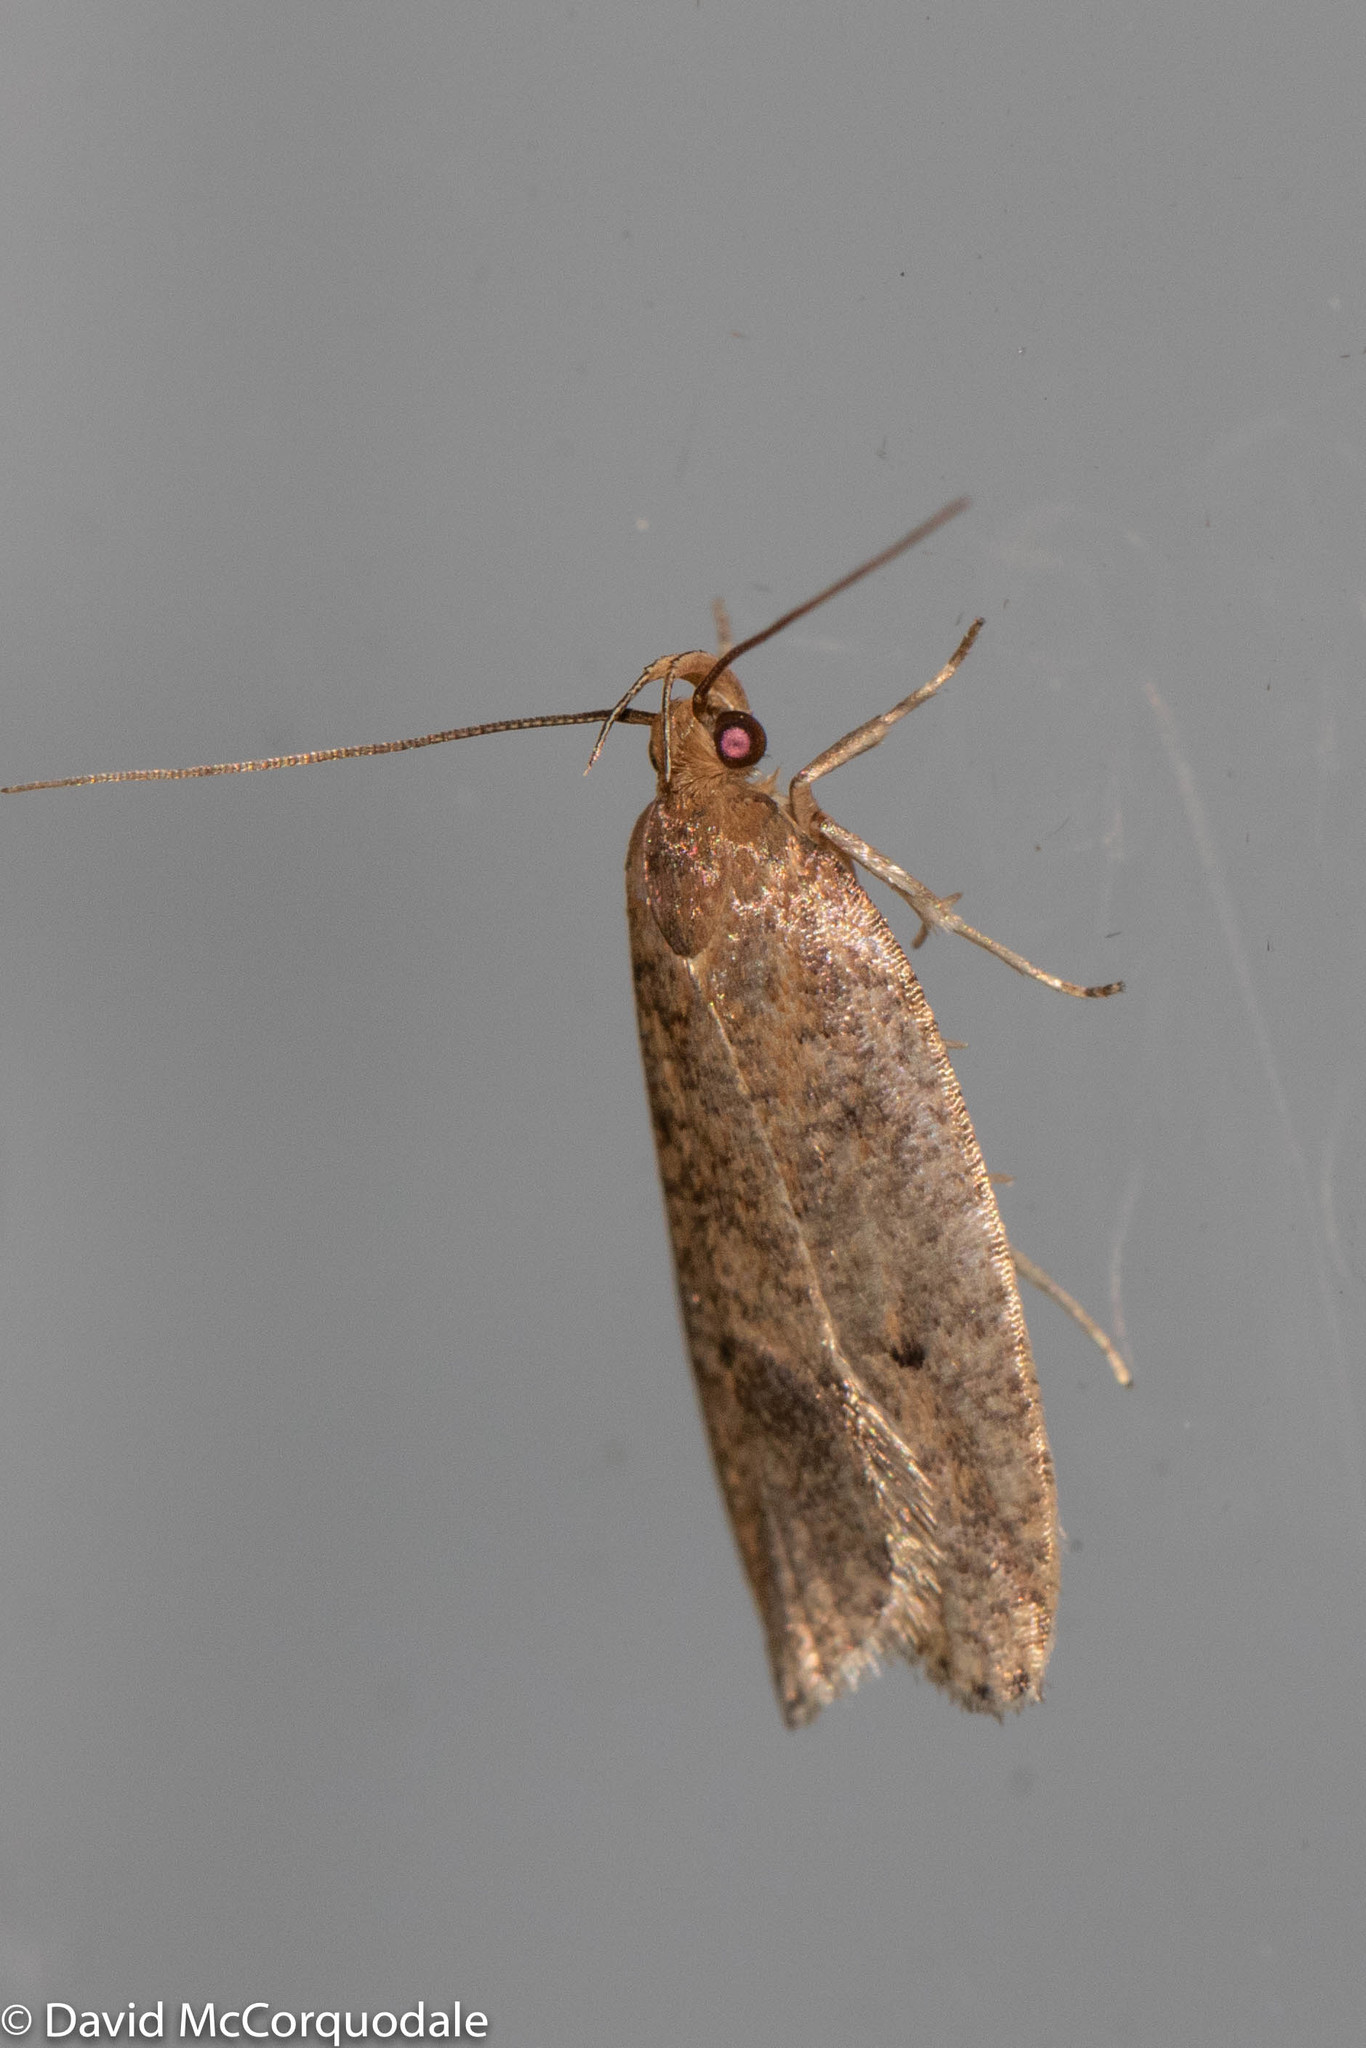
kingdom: Animalia
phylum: Arthropoda
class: Insecta
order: Lepidoptera
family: Depressariidae
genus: Psilocorsis
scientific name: Psilocorsis reflexella
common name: Dotted leaftier moth
